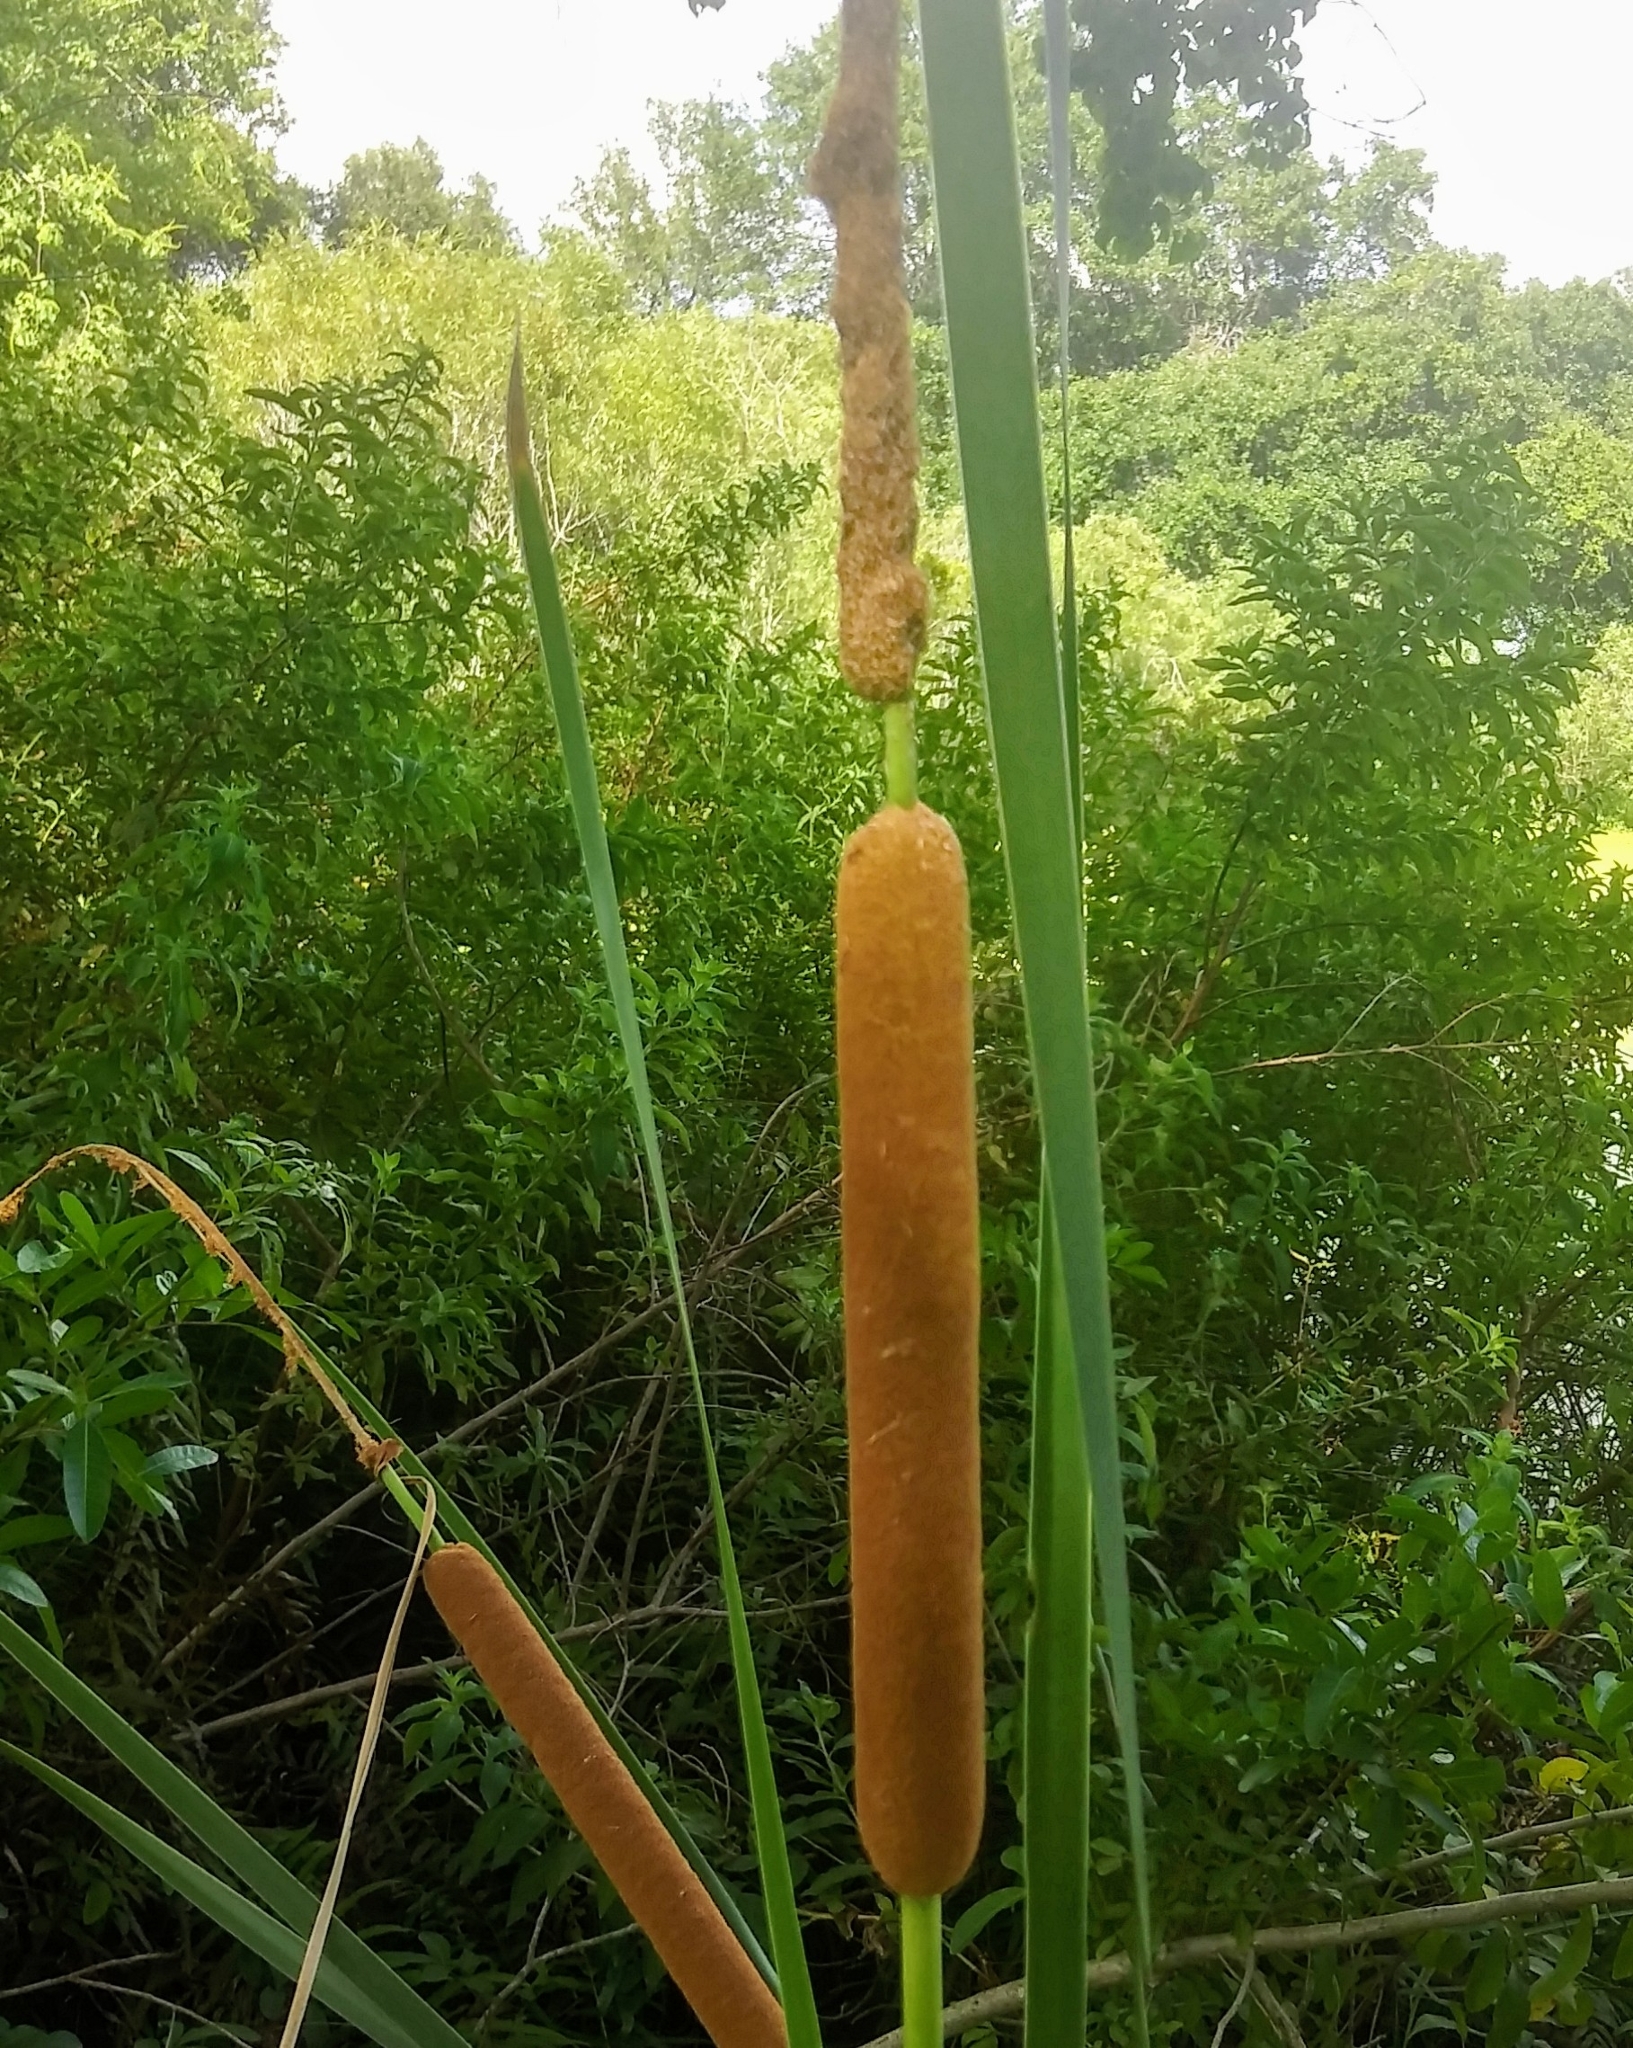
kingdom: Plantae
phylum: Tracheophyta
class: Liliopsida
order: Poales
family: Typhaceae
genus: Typha
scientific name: Typha domingensis
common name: Southern cattail
